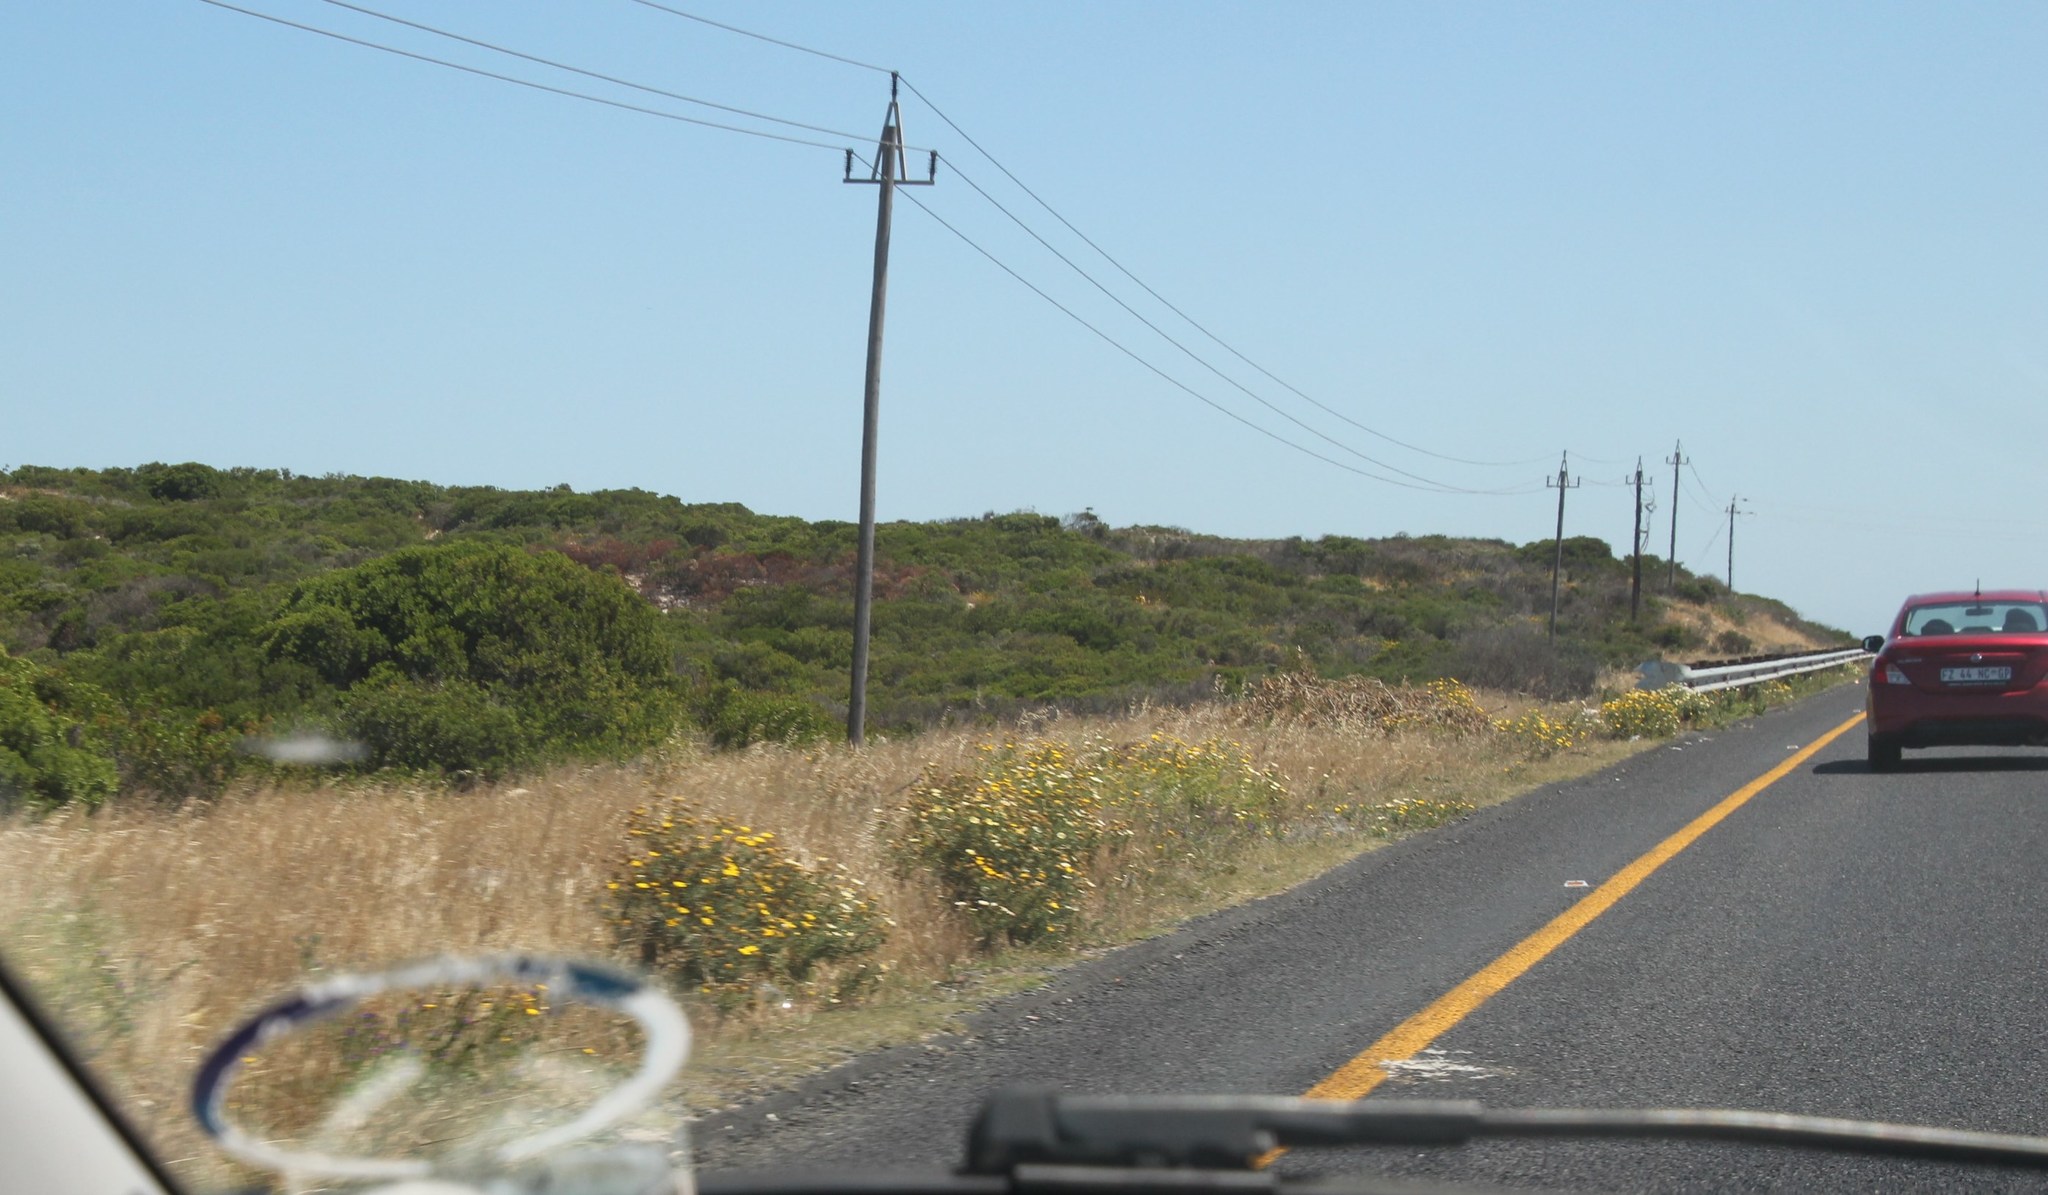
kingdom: Plantae
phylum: Tracheophyta
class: Magnoliopsida
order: Asterales
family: Asteraceae
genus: Glebionis
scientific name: Glebionis coronaria
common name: Crowndaisy
